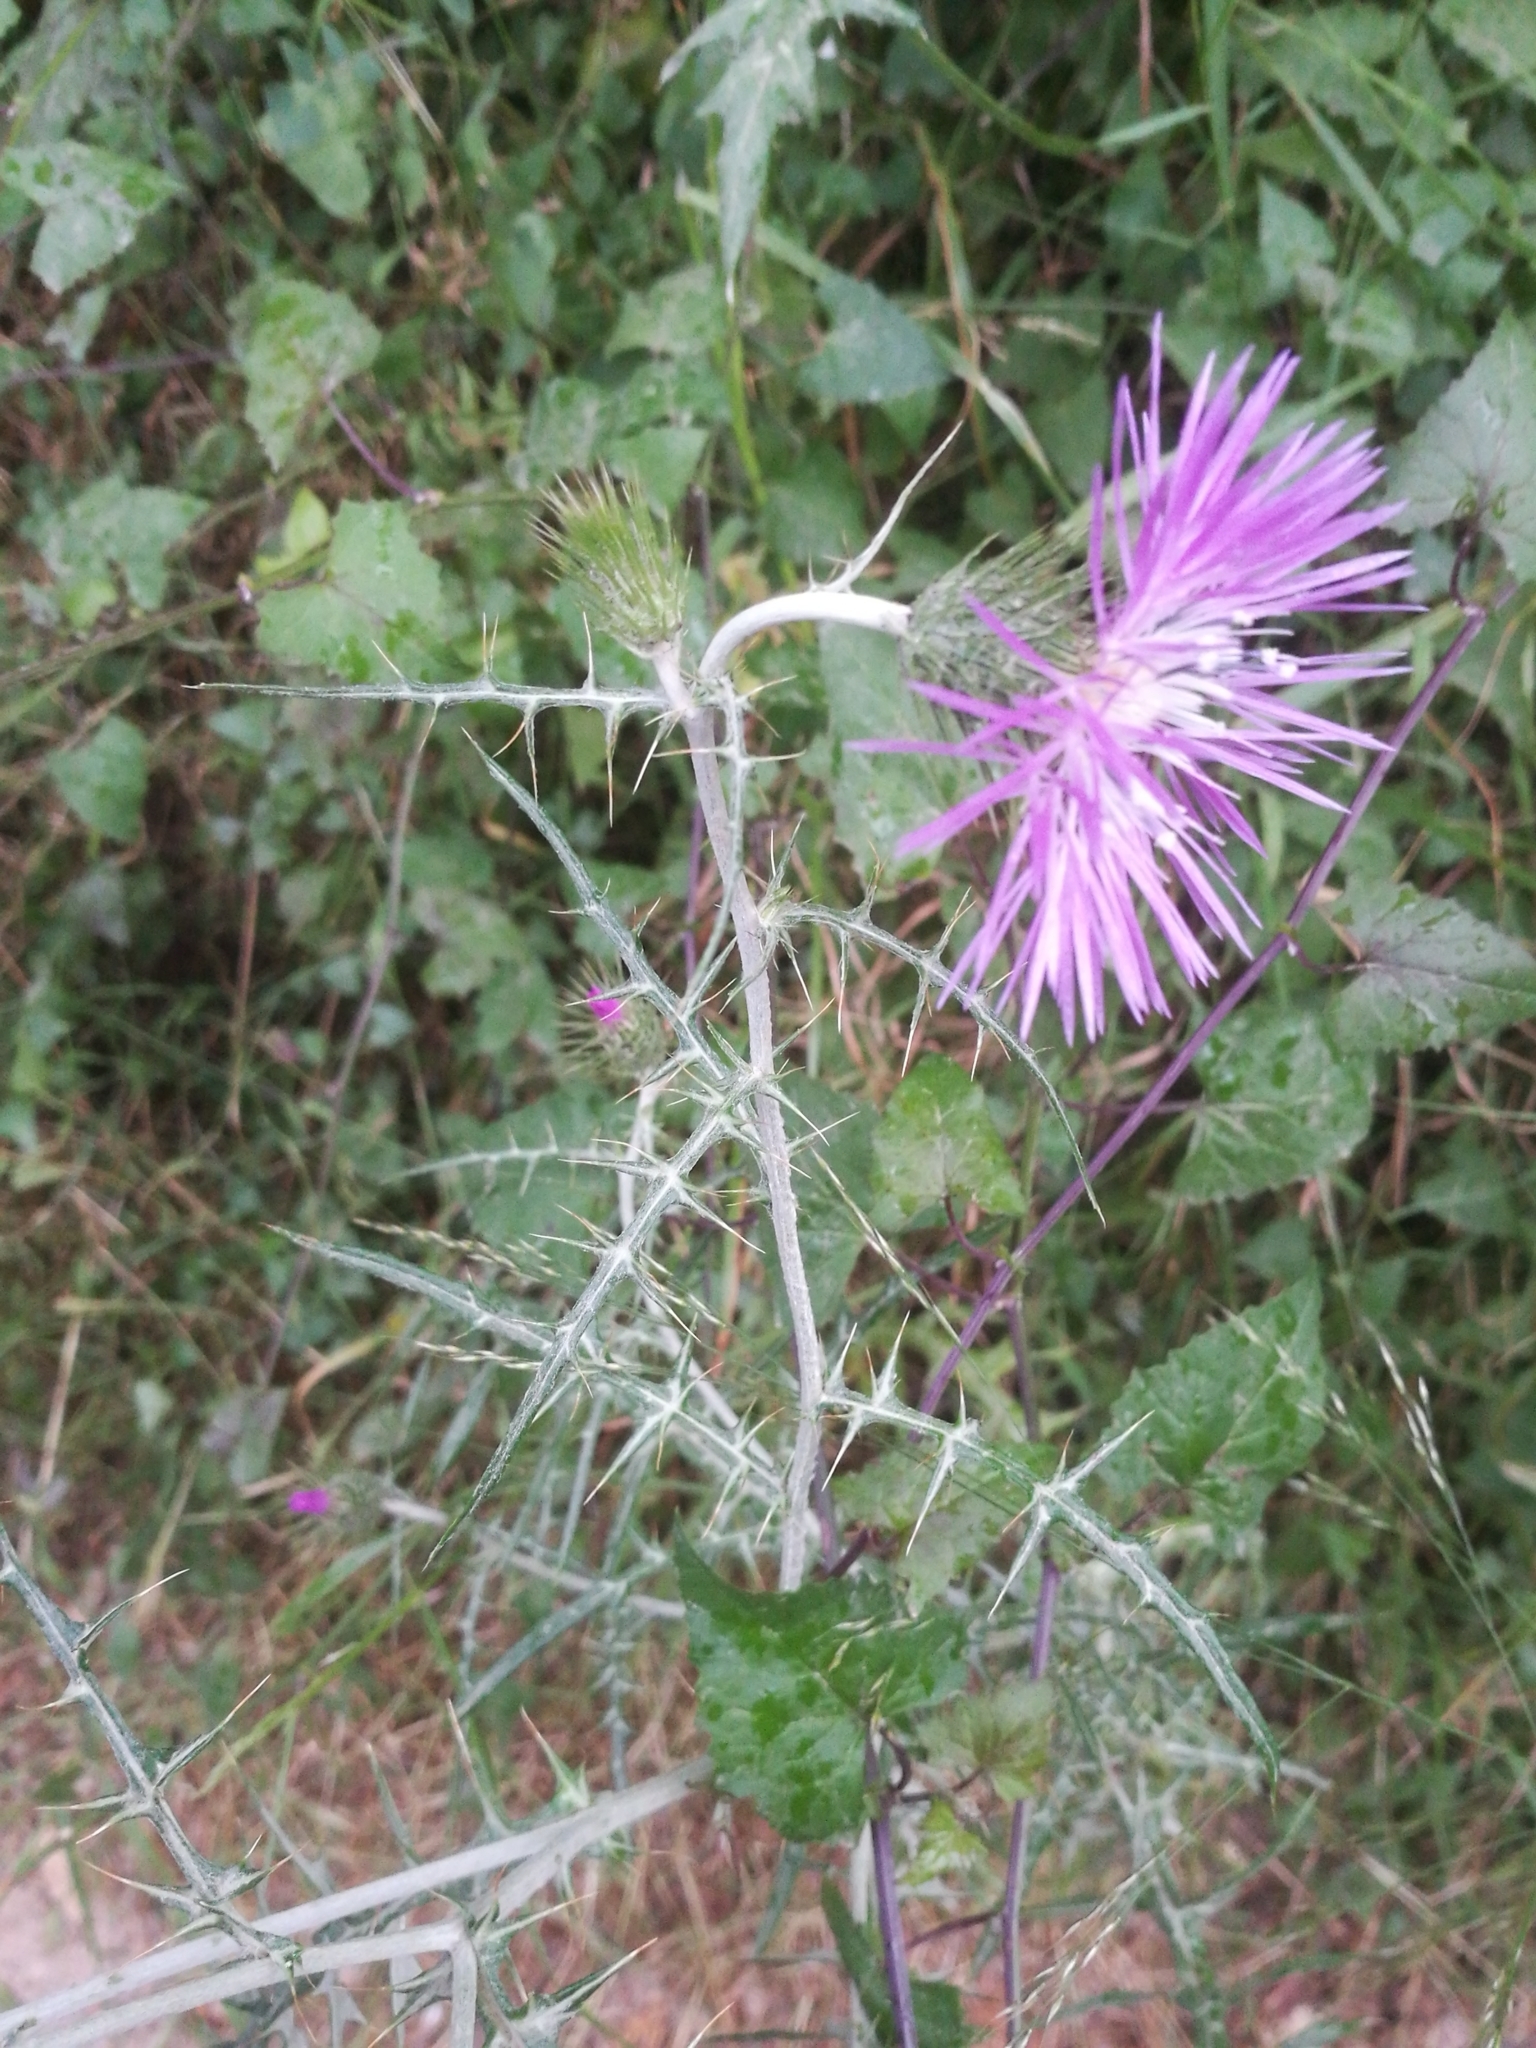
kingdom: Plantae
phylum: Tracheophyta
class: Magnoliopsida
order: Asterales
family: Asteraceae
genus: Galactites
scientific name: Galactites tomentosa
